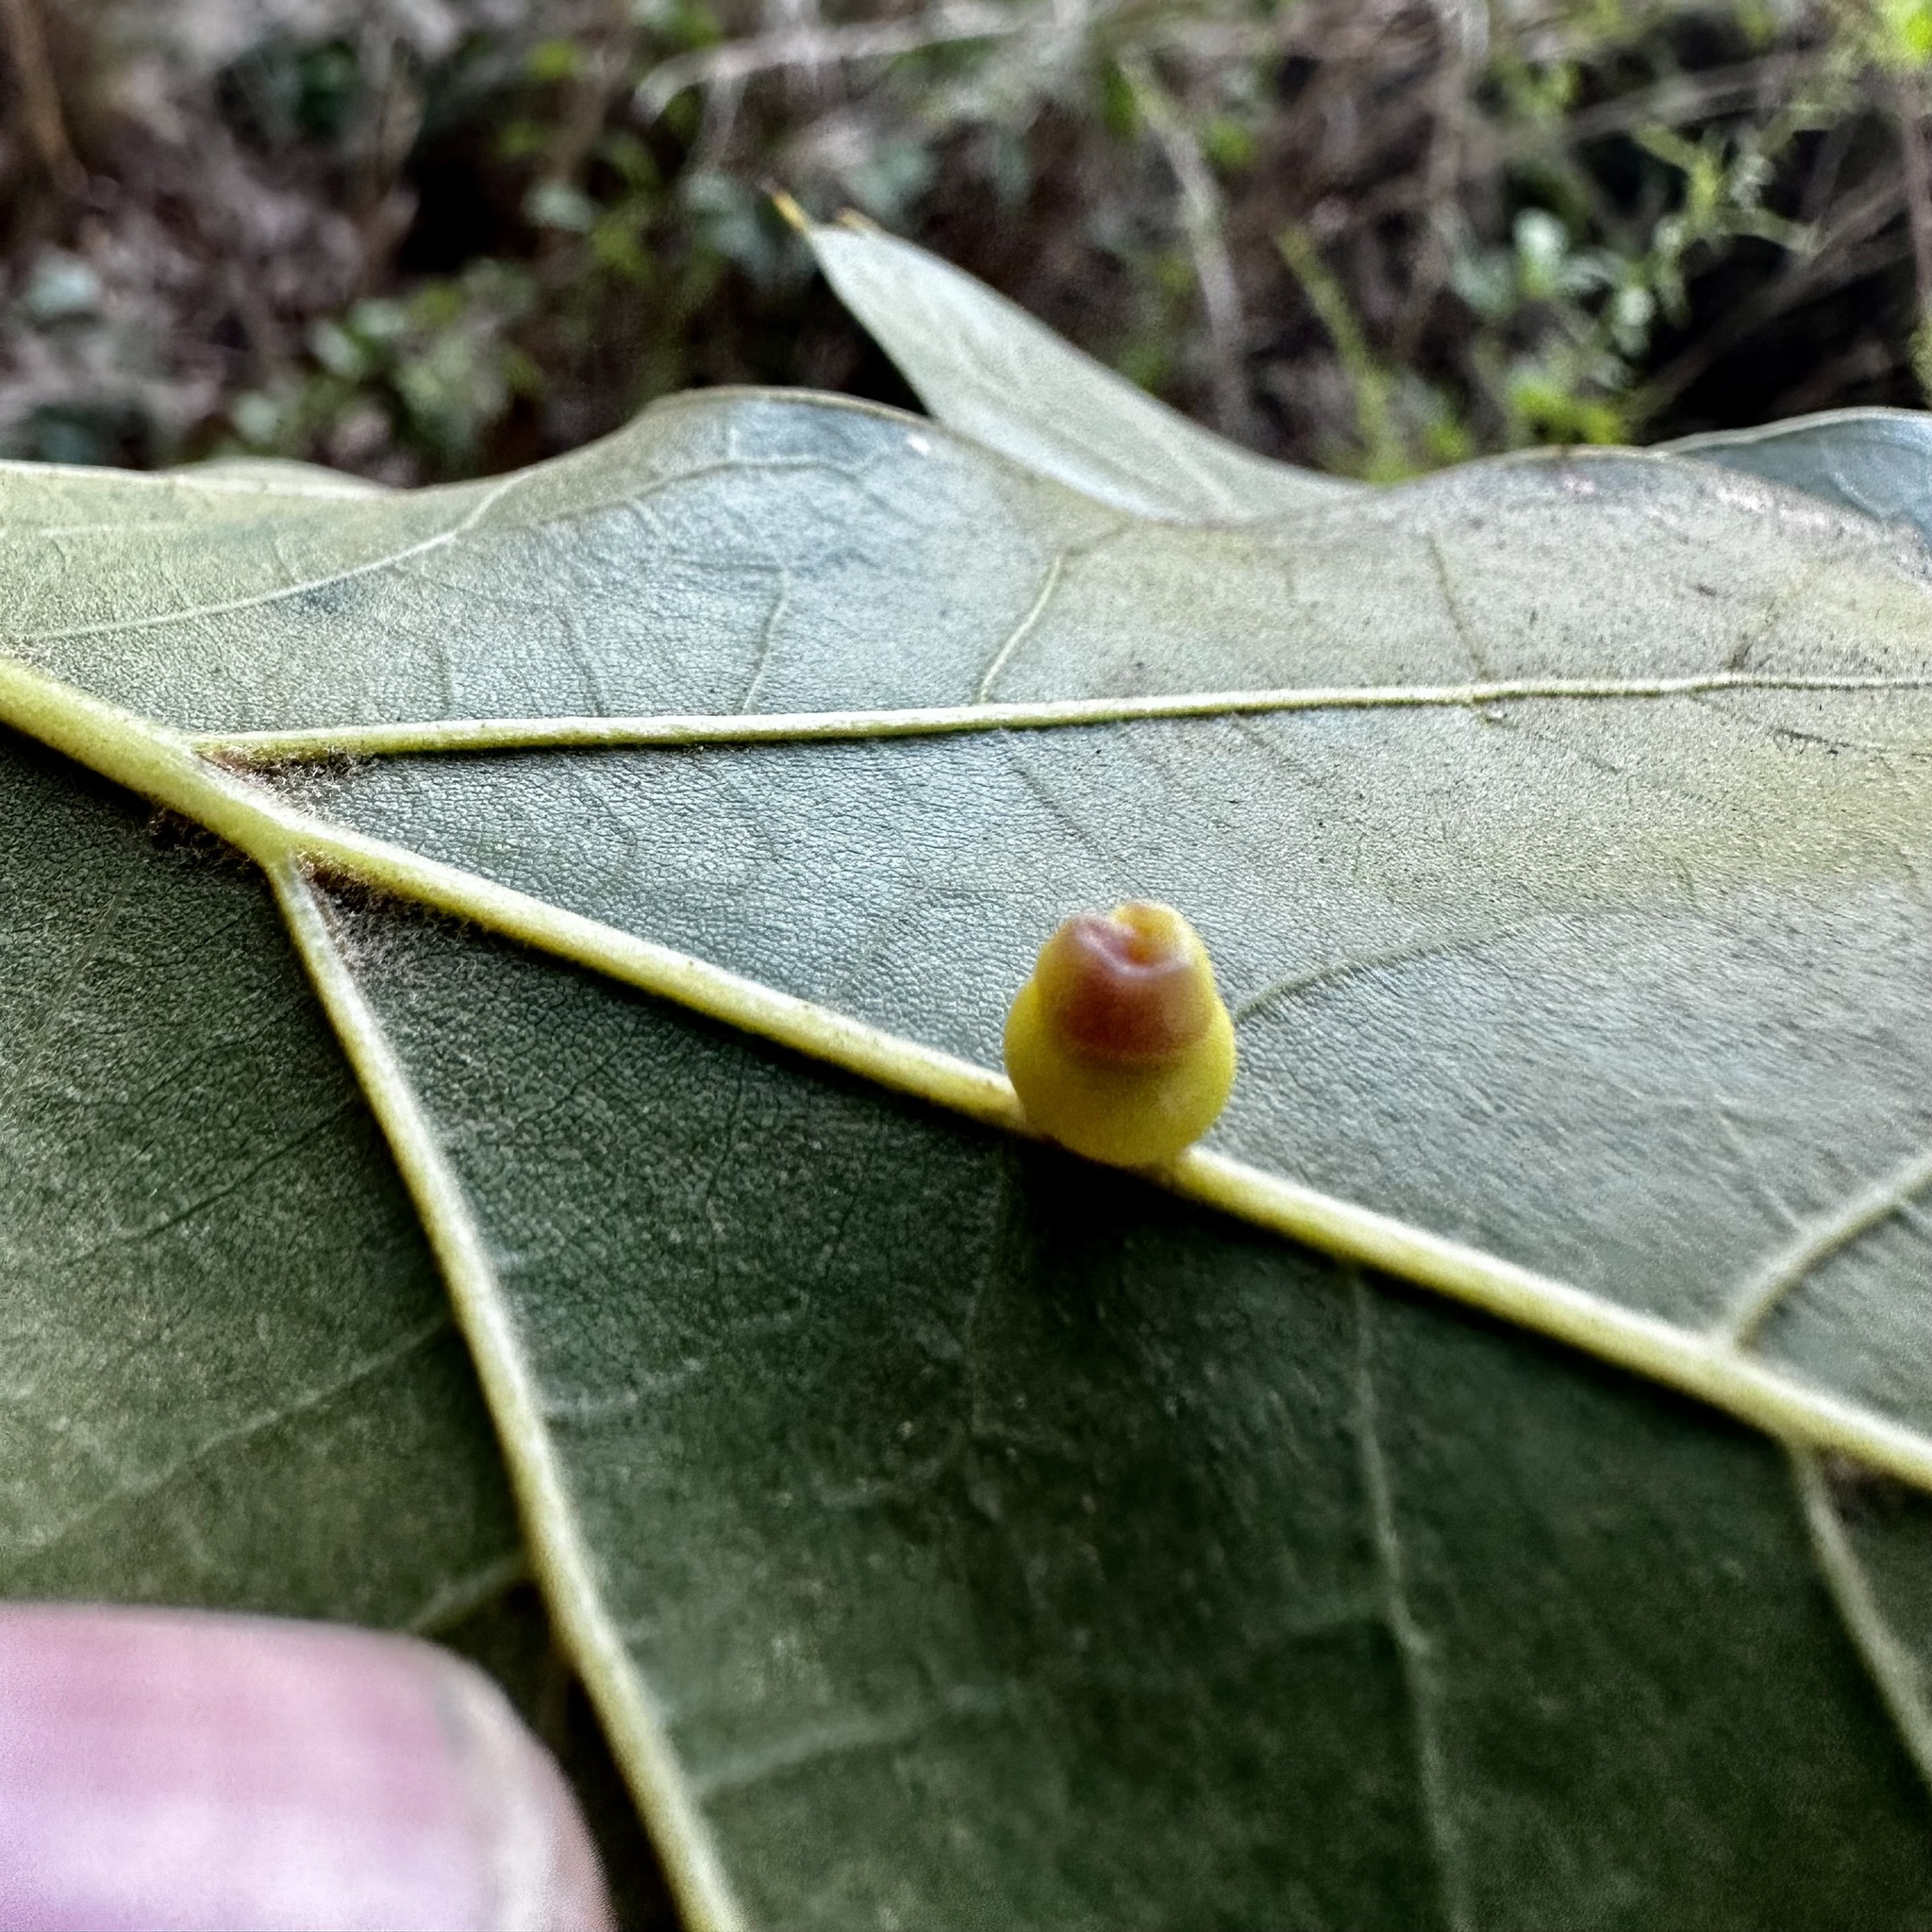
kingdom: Animalia
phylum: Arthropoda
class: Insecta
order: Hymenoptera
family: Cynipidae
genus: Kokkocynips
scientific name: Kokkocynips rileyi
